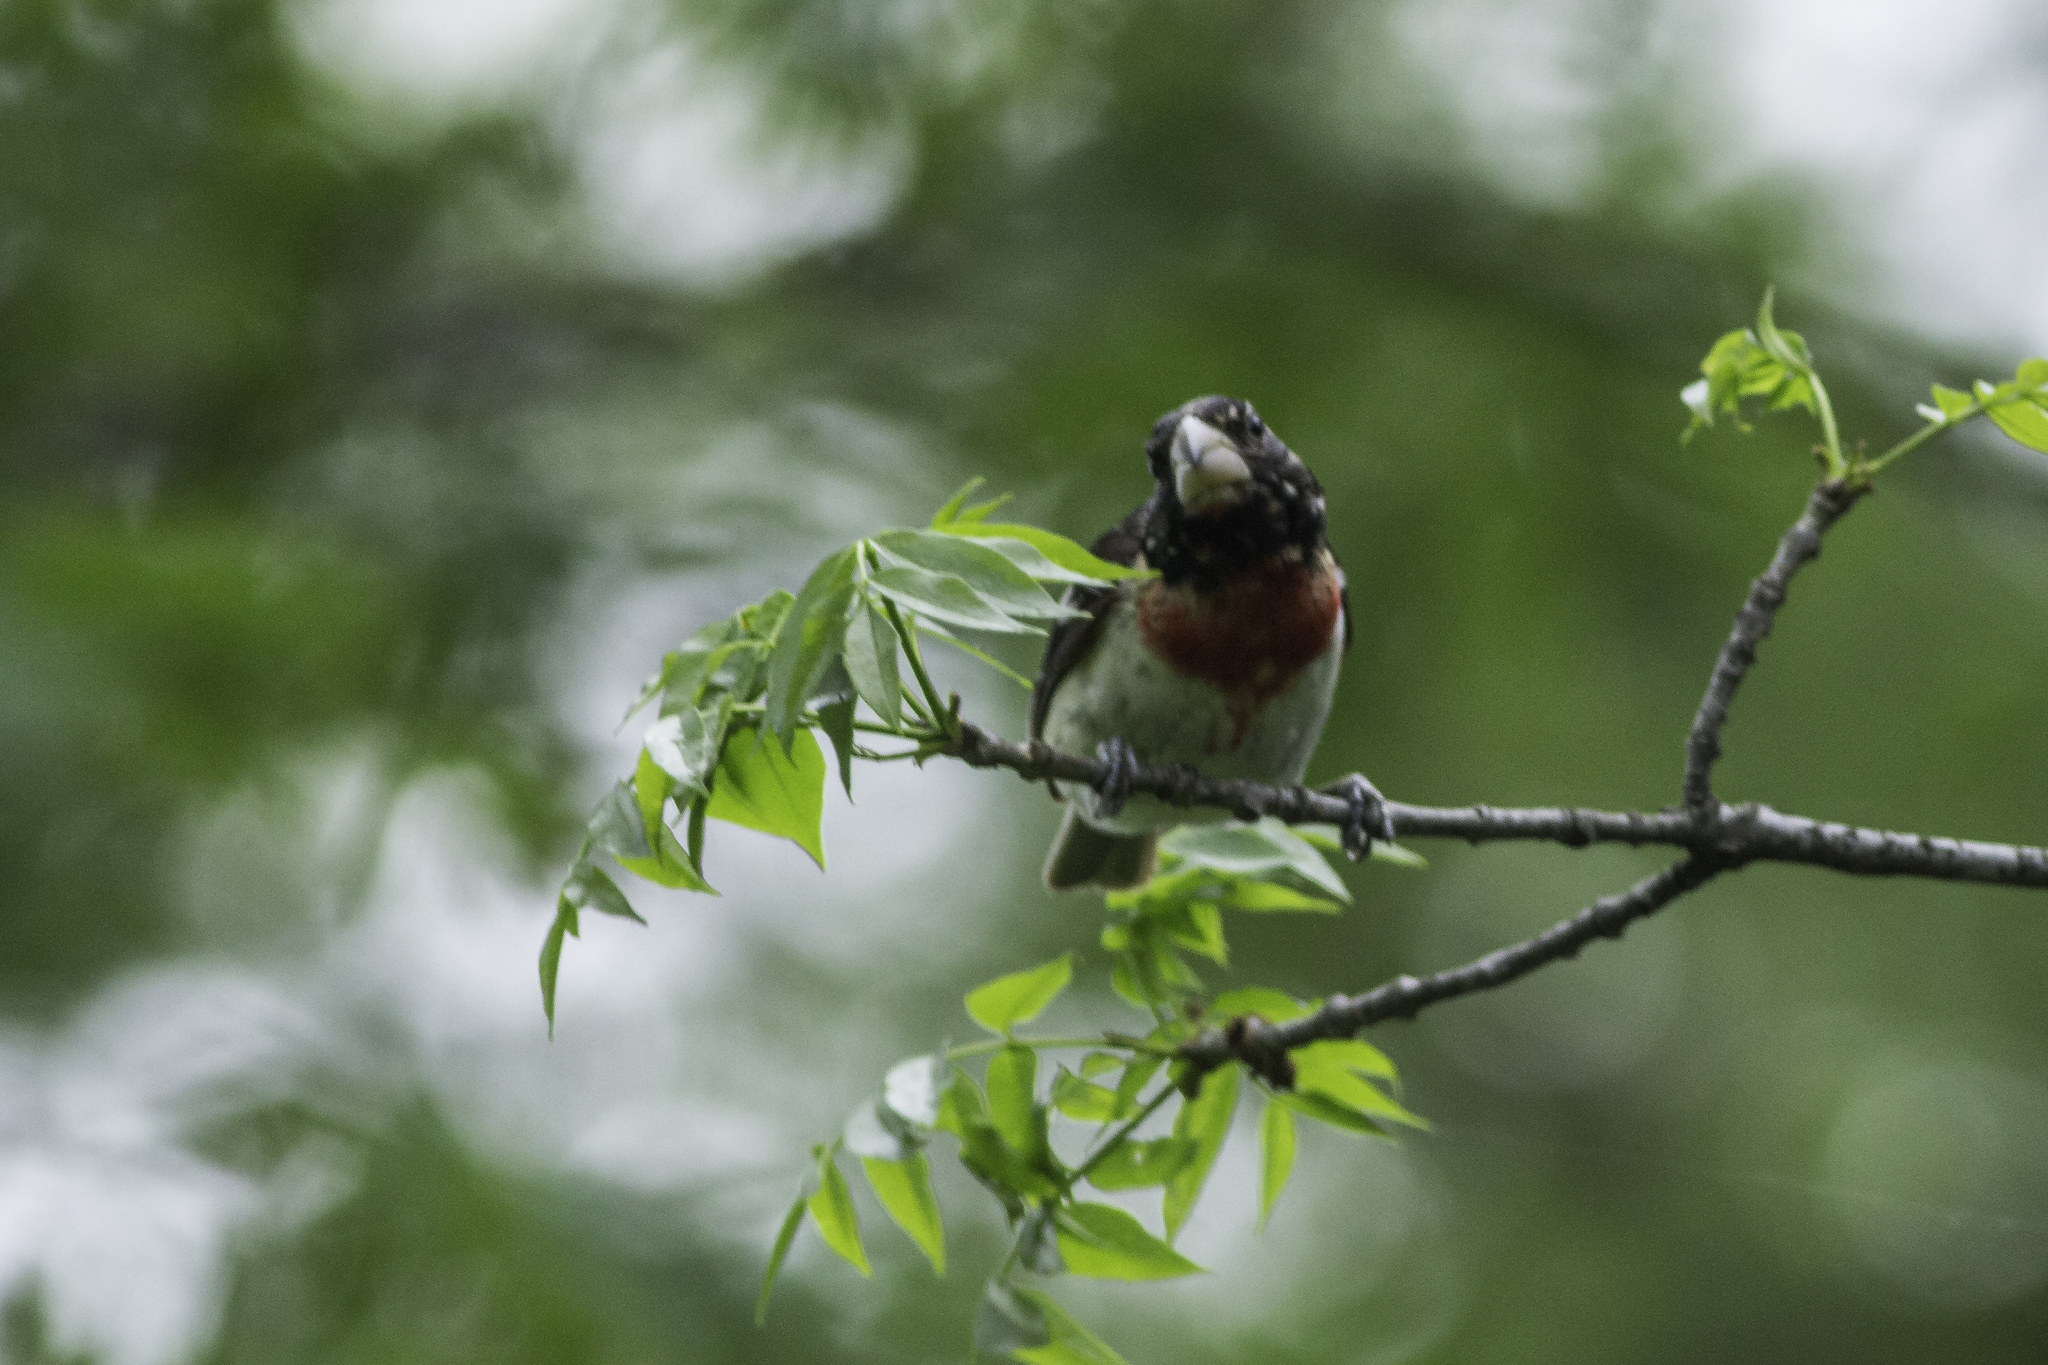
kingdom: Animalia
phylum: Chordata
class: Aves
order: Passeriformes
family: Cardinalidae
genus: Pheucticus
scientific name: Pheucticus ludovicianus
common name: Rose-breasted grosbeak
